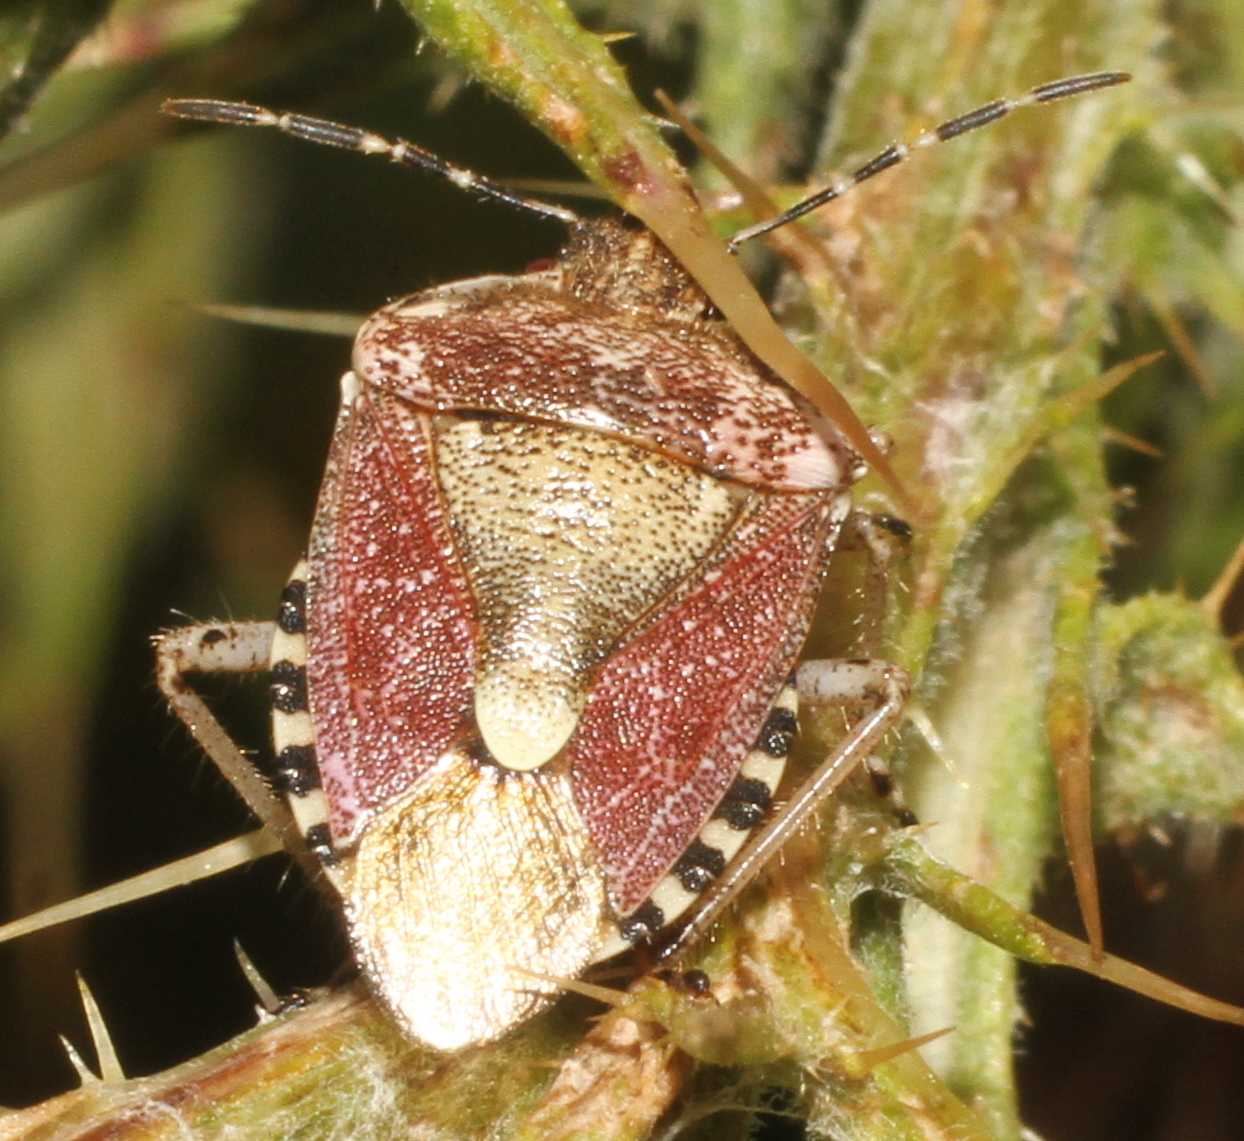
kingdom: Animalia
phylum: Arthropoda
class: Insecta
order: Hemiptera
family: Pentatomidae
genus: Dolycoris
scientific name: Dolycoris baccarum
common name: Sloe bug
